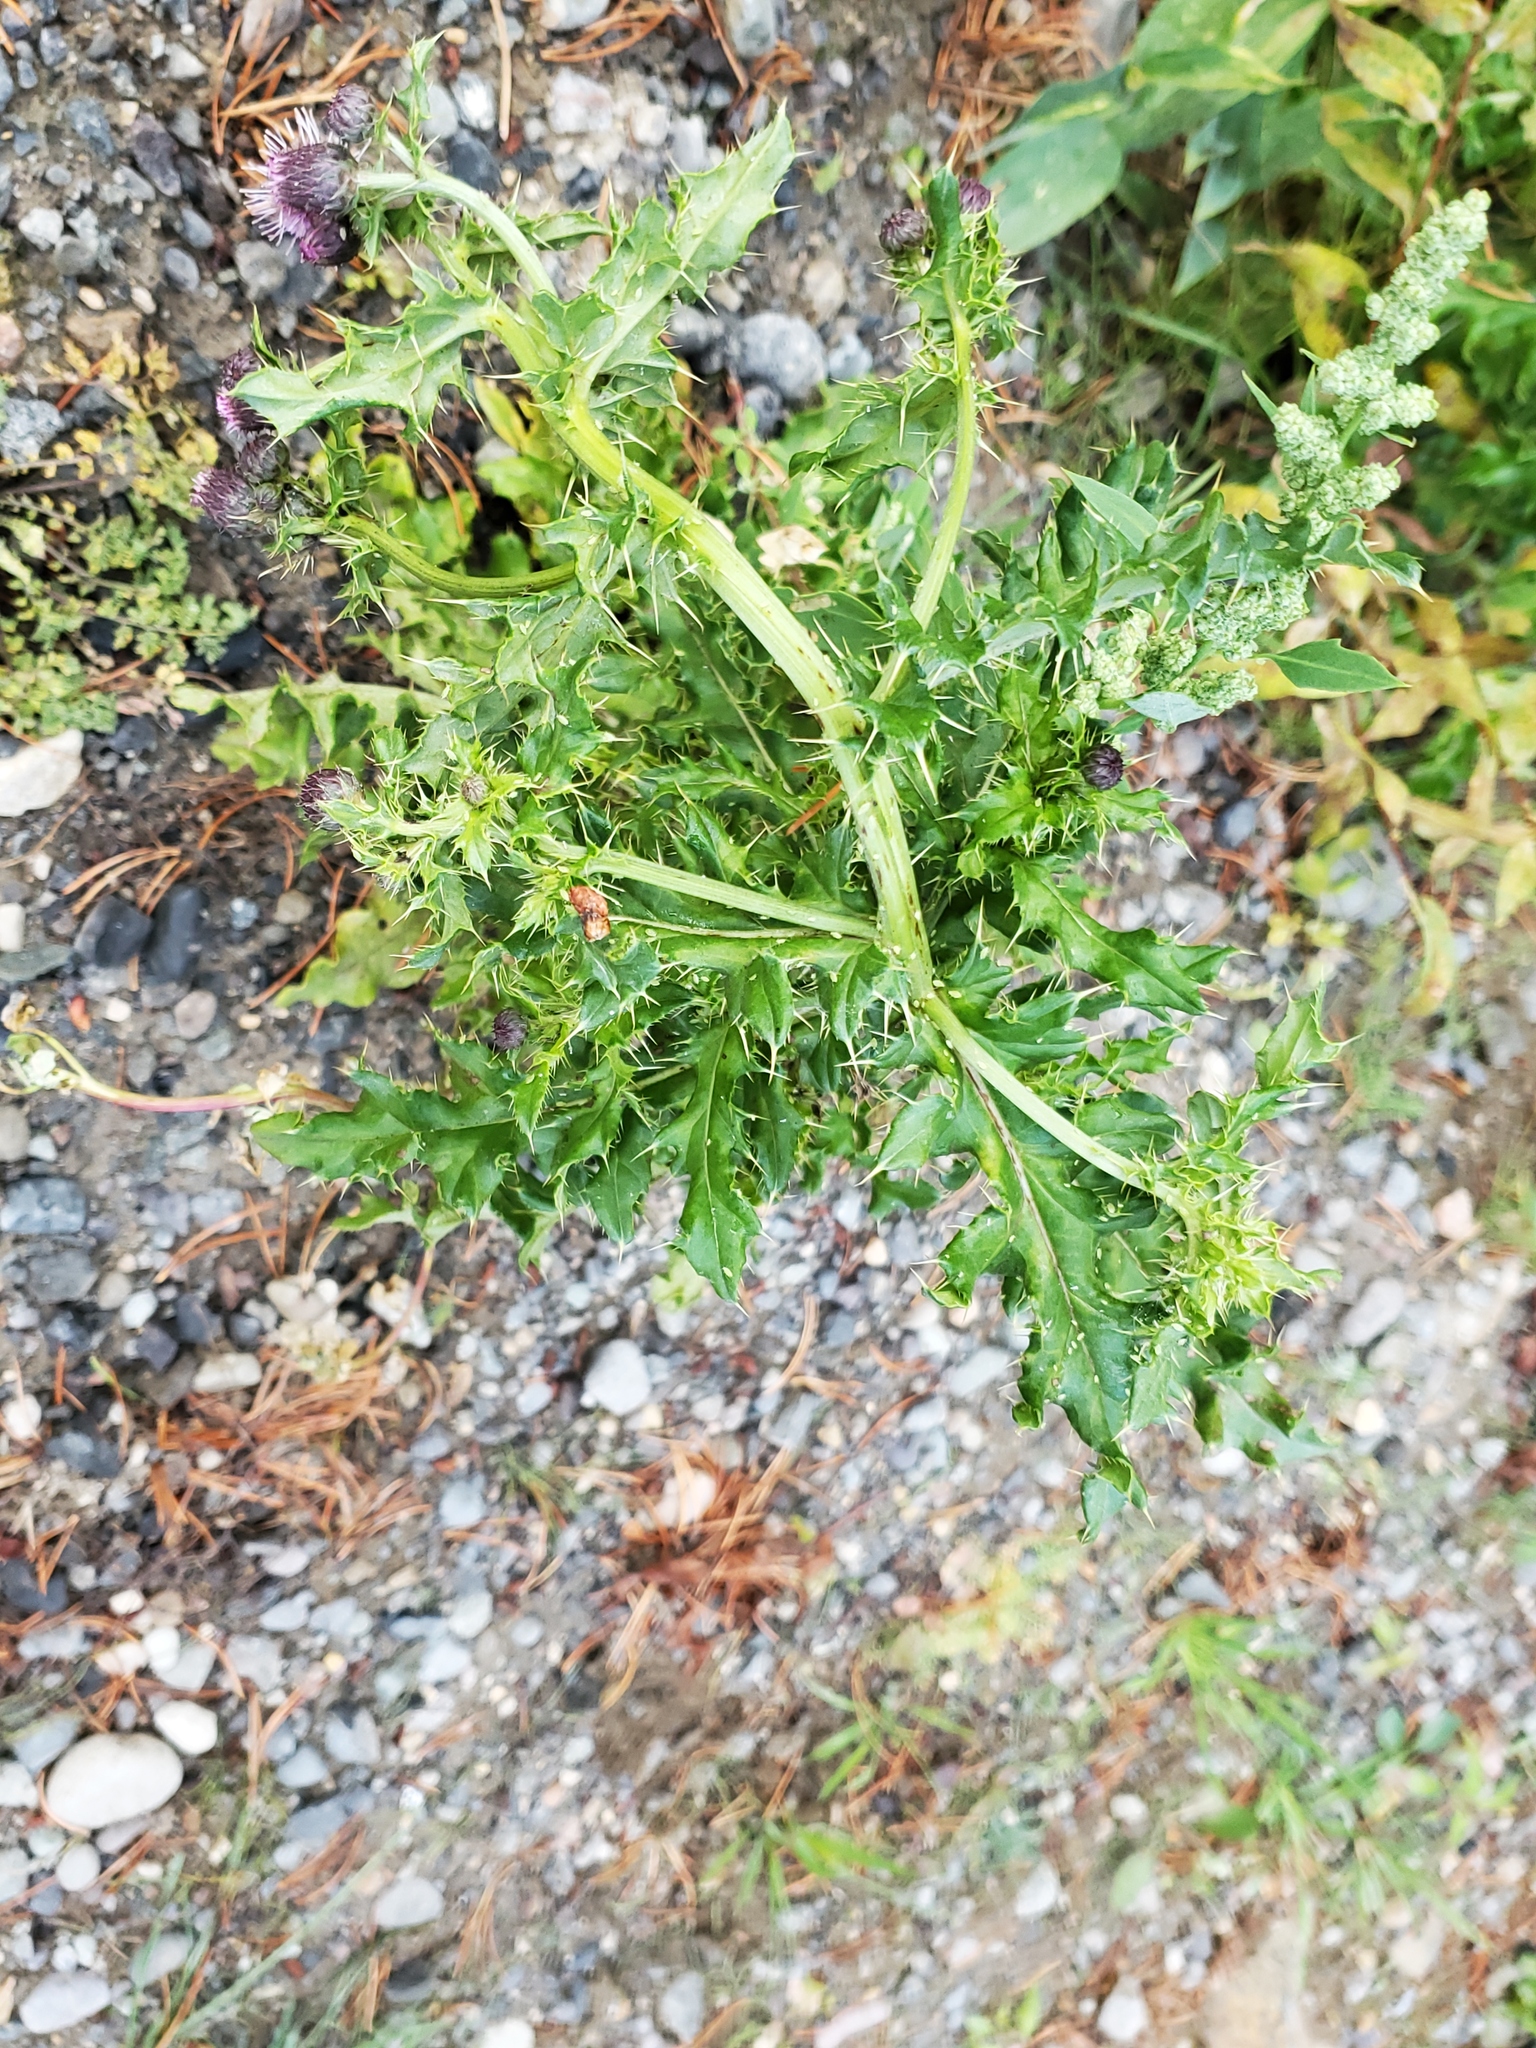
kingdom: Plantae
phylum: Tracheophyta
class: Magnoliopsida
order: Asterales
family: Asteraceae
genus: Cirsium
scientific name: Cirsium arvense
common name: Creeping thistle
